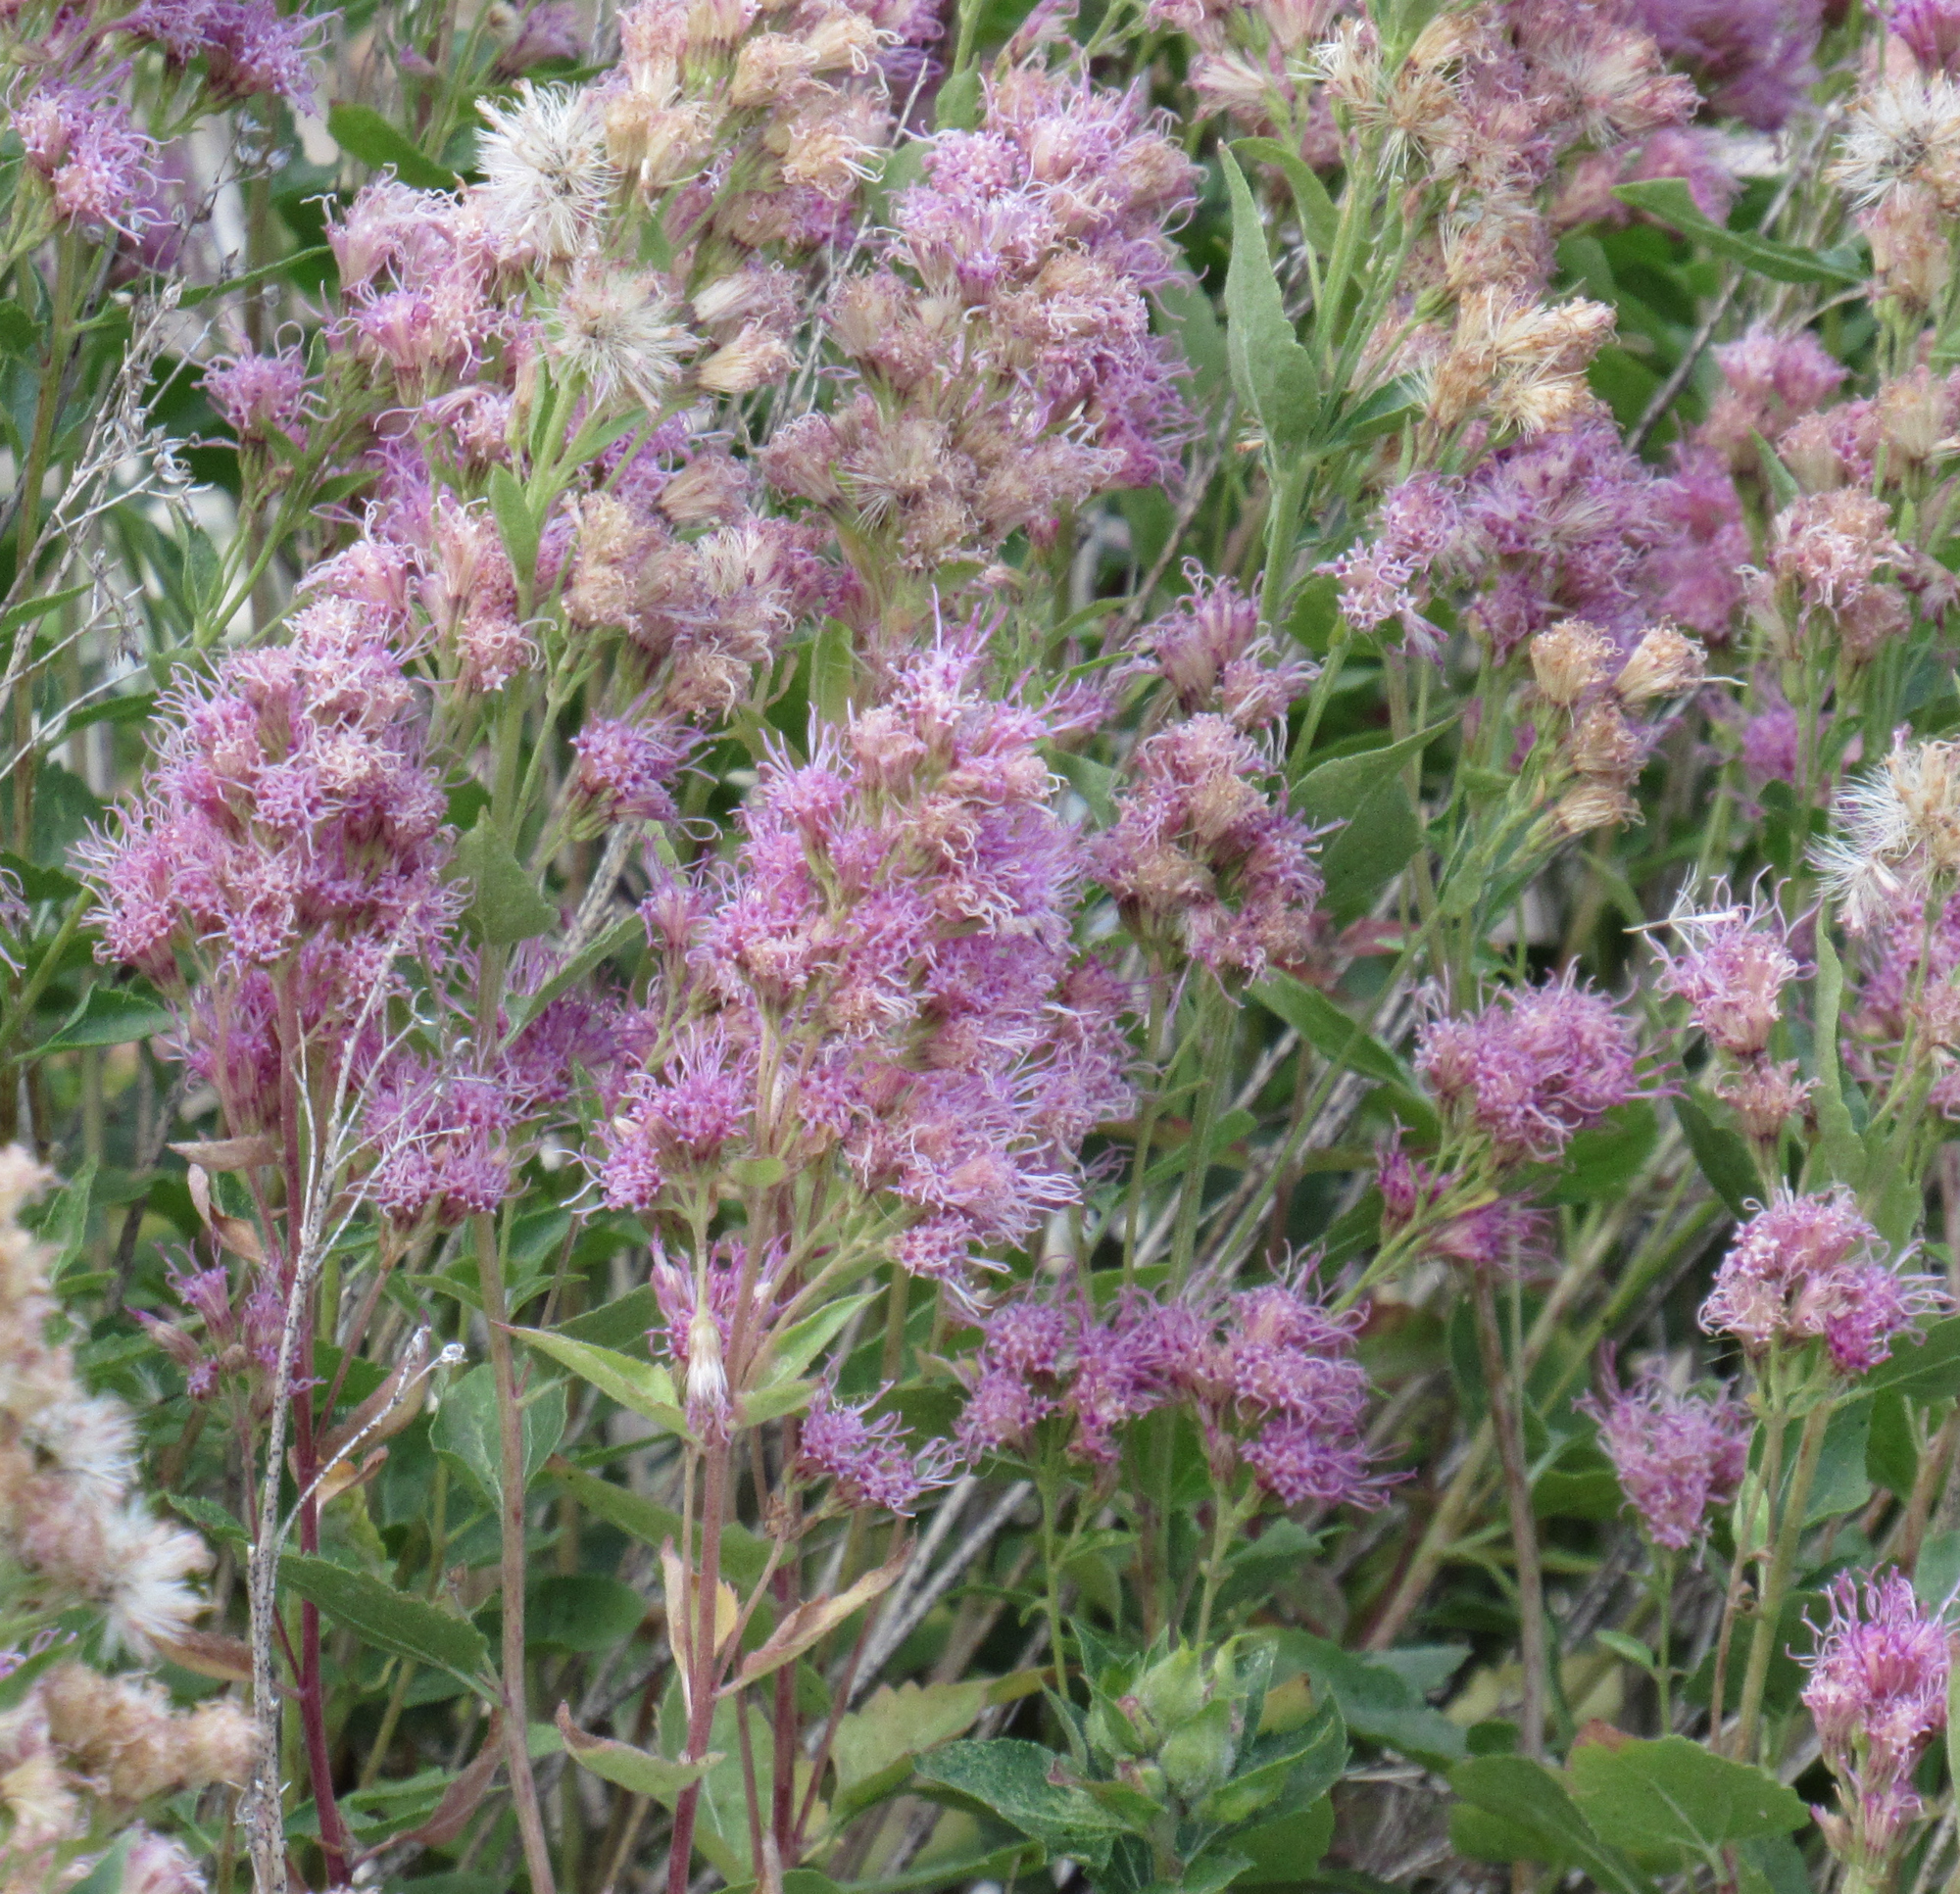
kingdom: Plantae
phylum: Tracheophyta
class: Magnoliopsida
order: Asterales
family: Asteraceae
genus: Ageratina
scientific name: Ageratina occidentalis
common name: Western snakeroot
